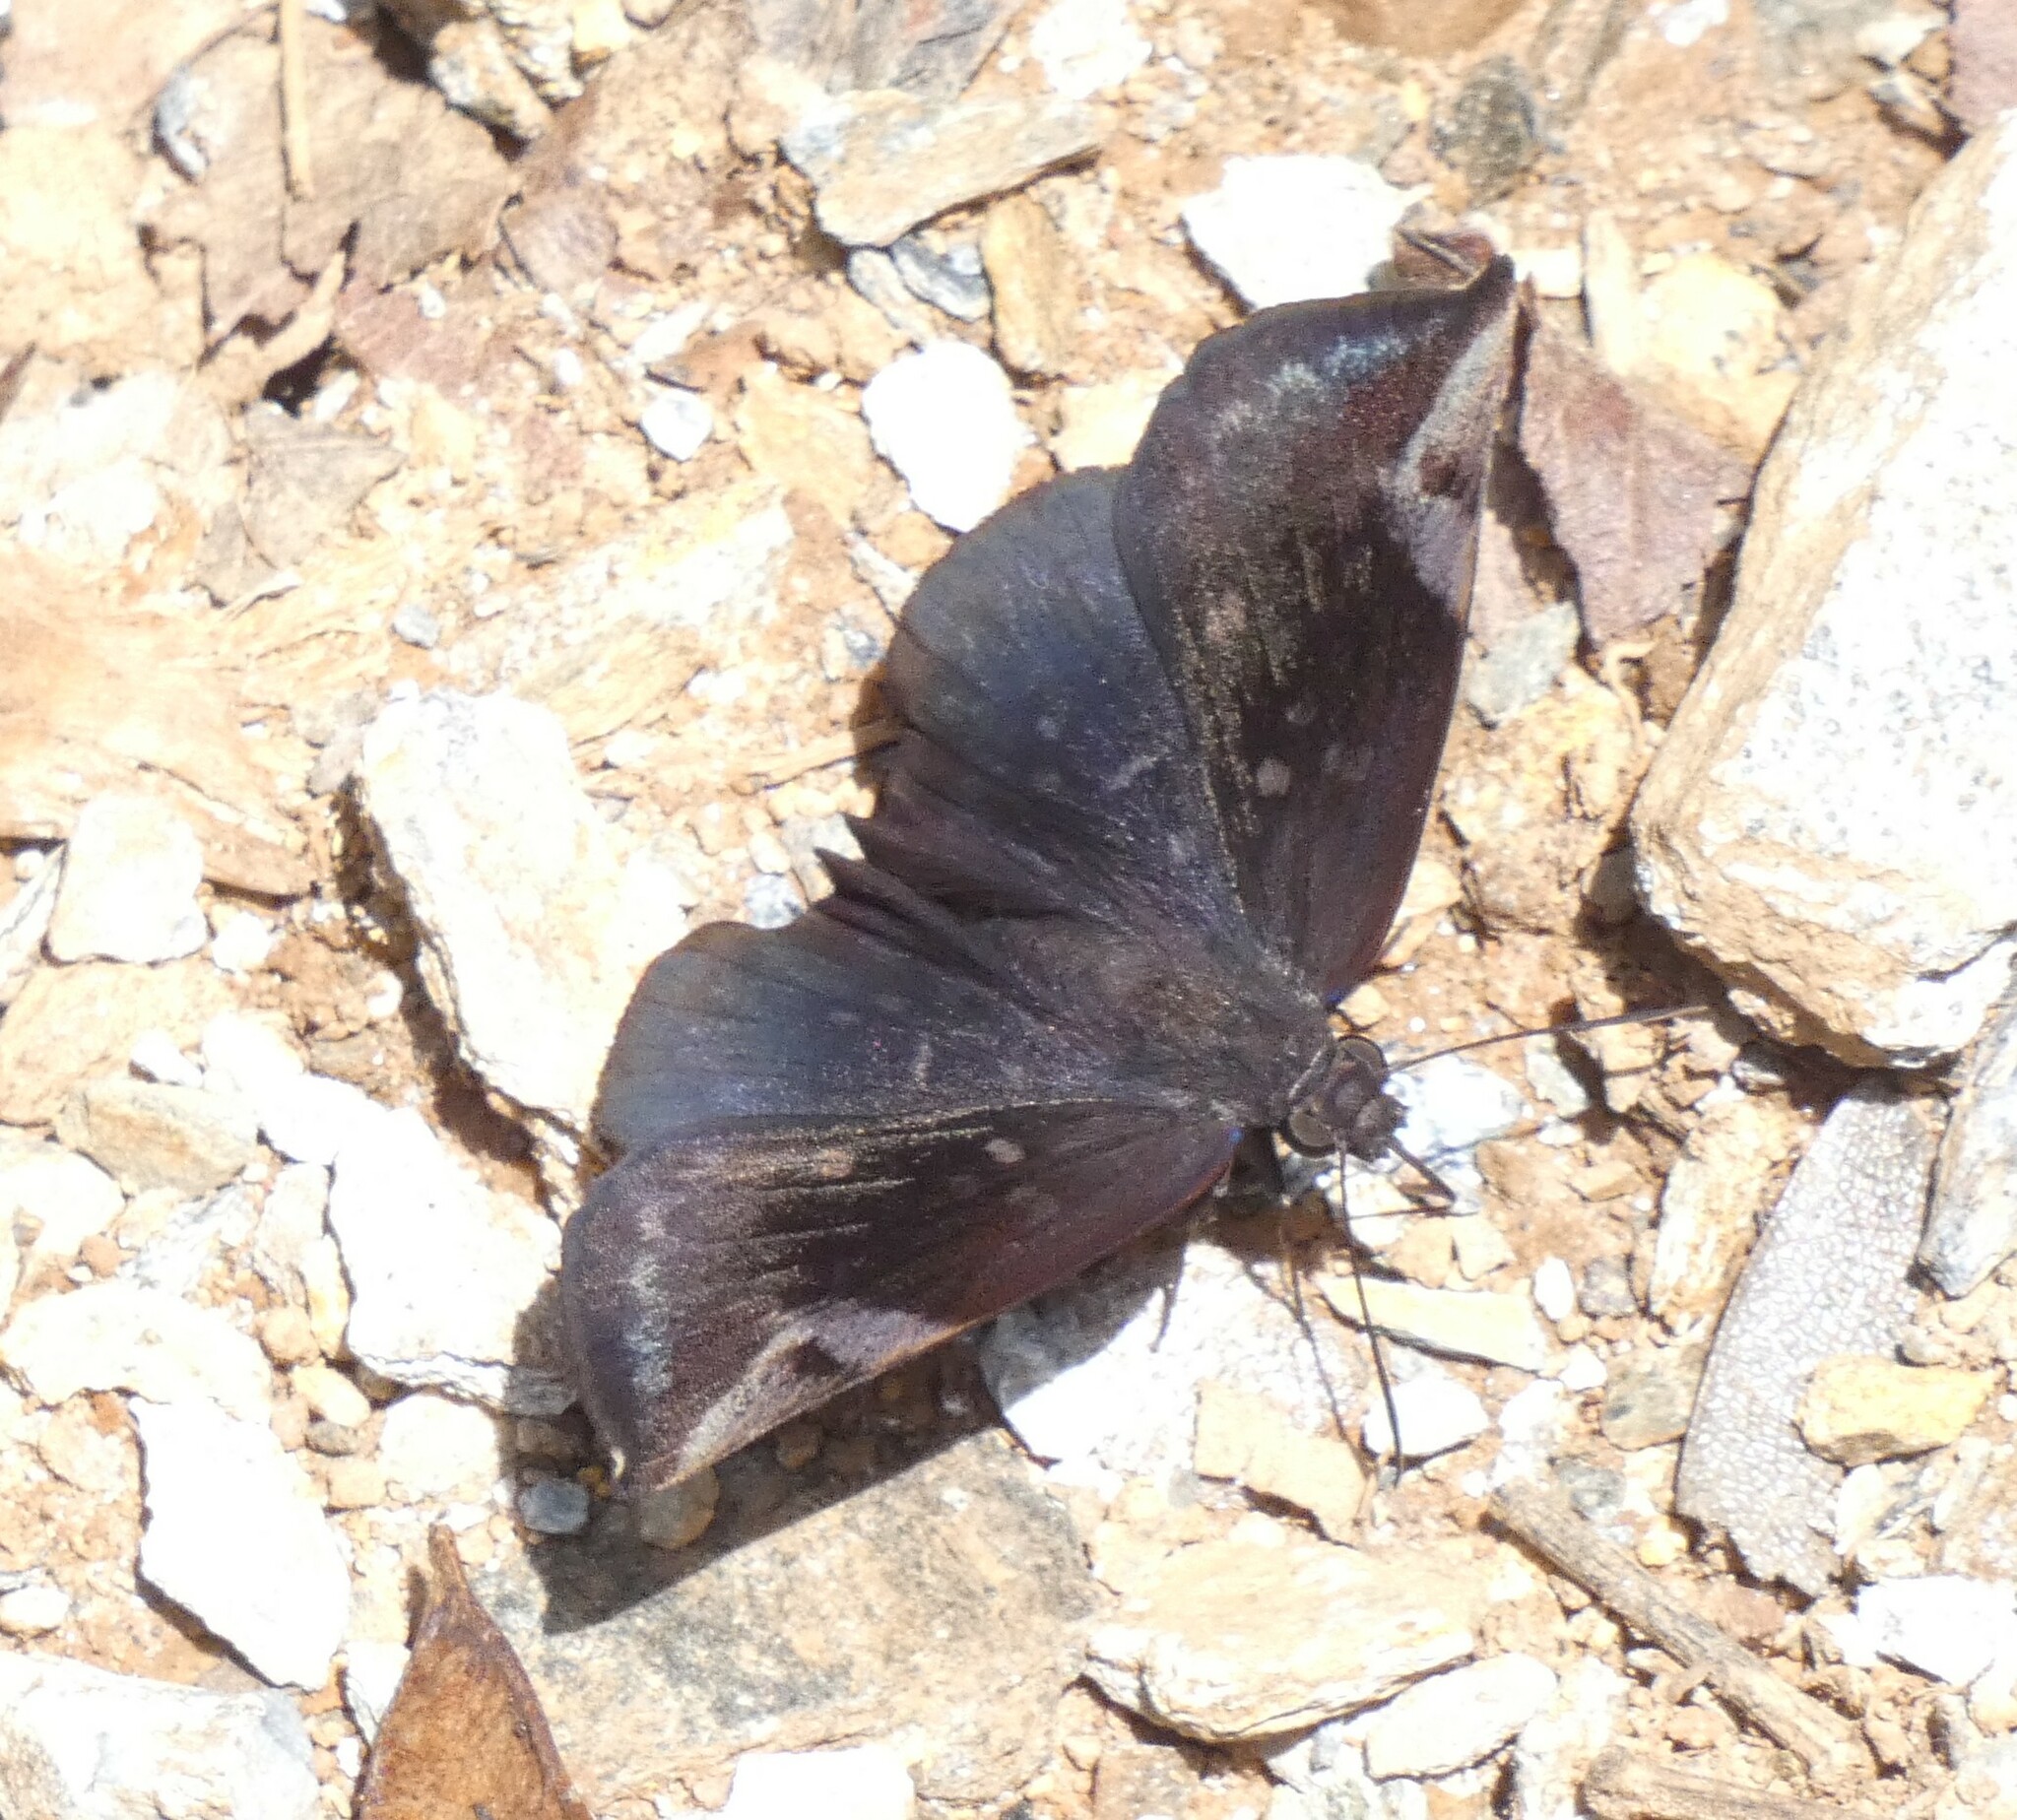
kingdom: Animalia
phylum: Arthropoda
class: Insecta
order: Lepidoptera
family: Hesperiidae
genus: Achlyodes
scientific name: Achlyodes thraso
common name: Sickle-winged skipper
